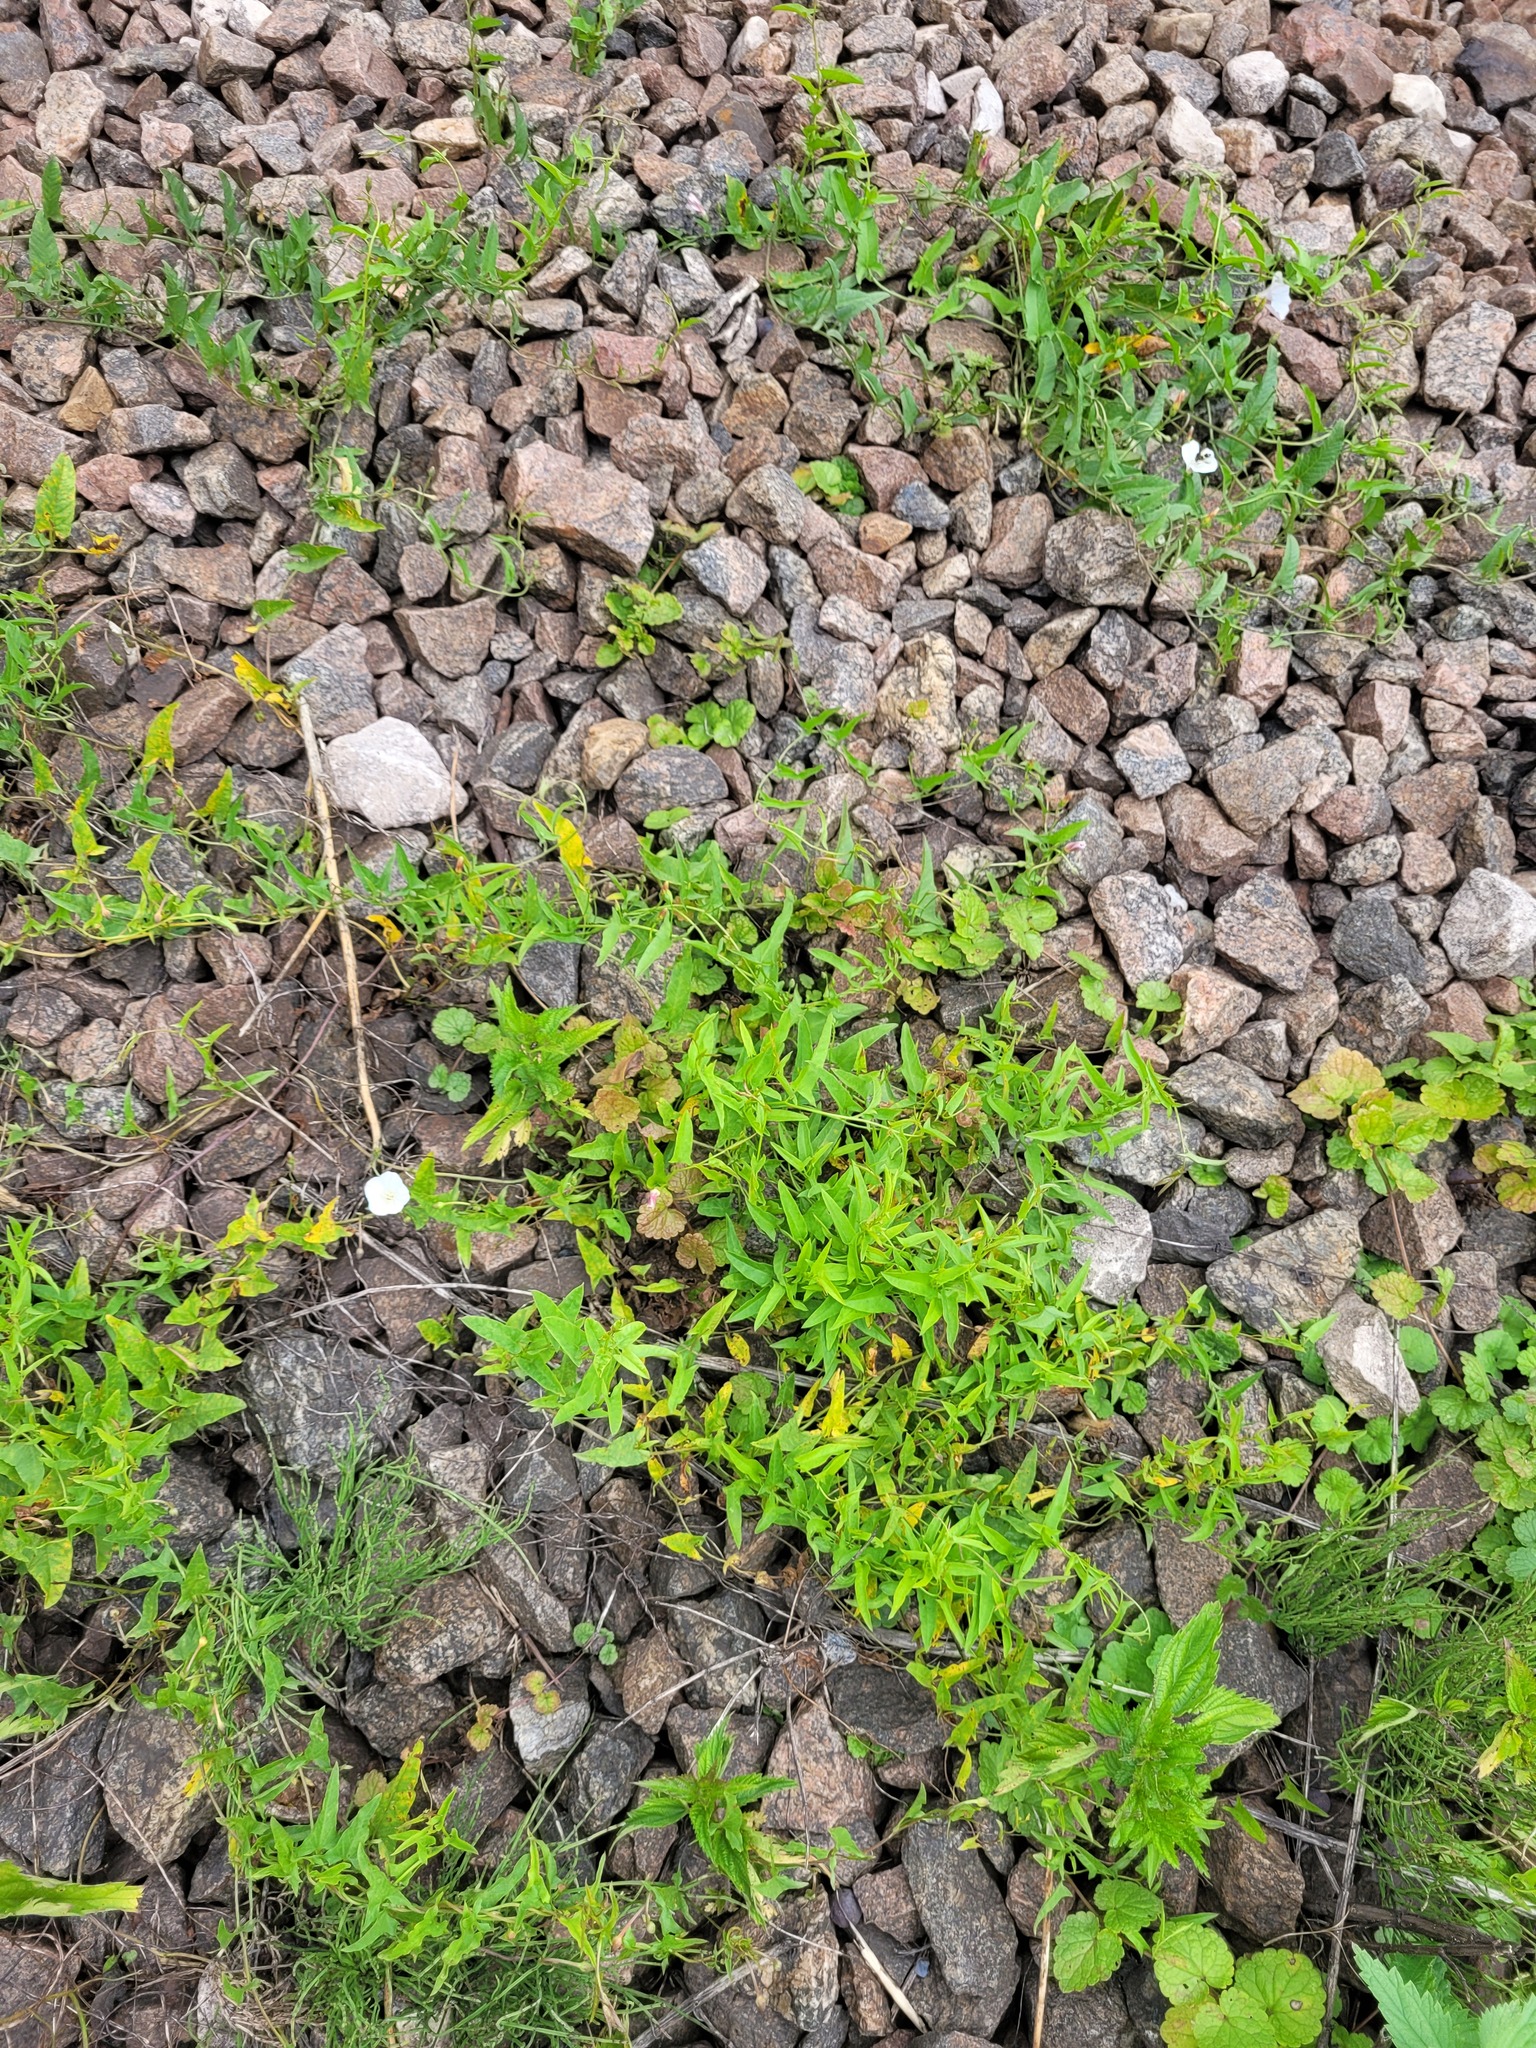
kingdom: Plantae
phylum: Tracheophyta
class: Magnoliopsida
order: Solanales
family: Convolvulaceae
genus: Convolvulus
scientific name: Convolvulus arvensis
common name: Field bindweed
